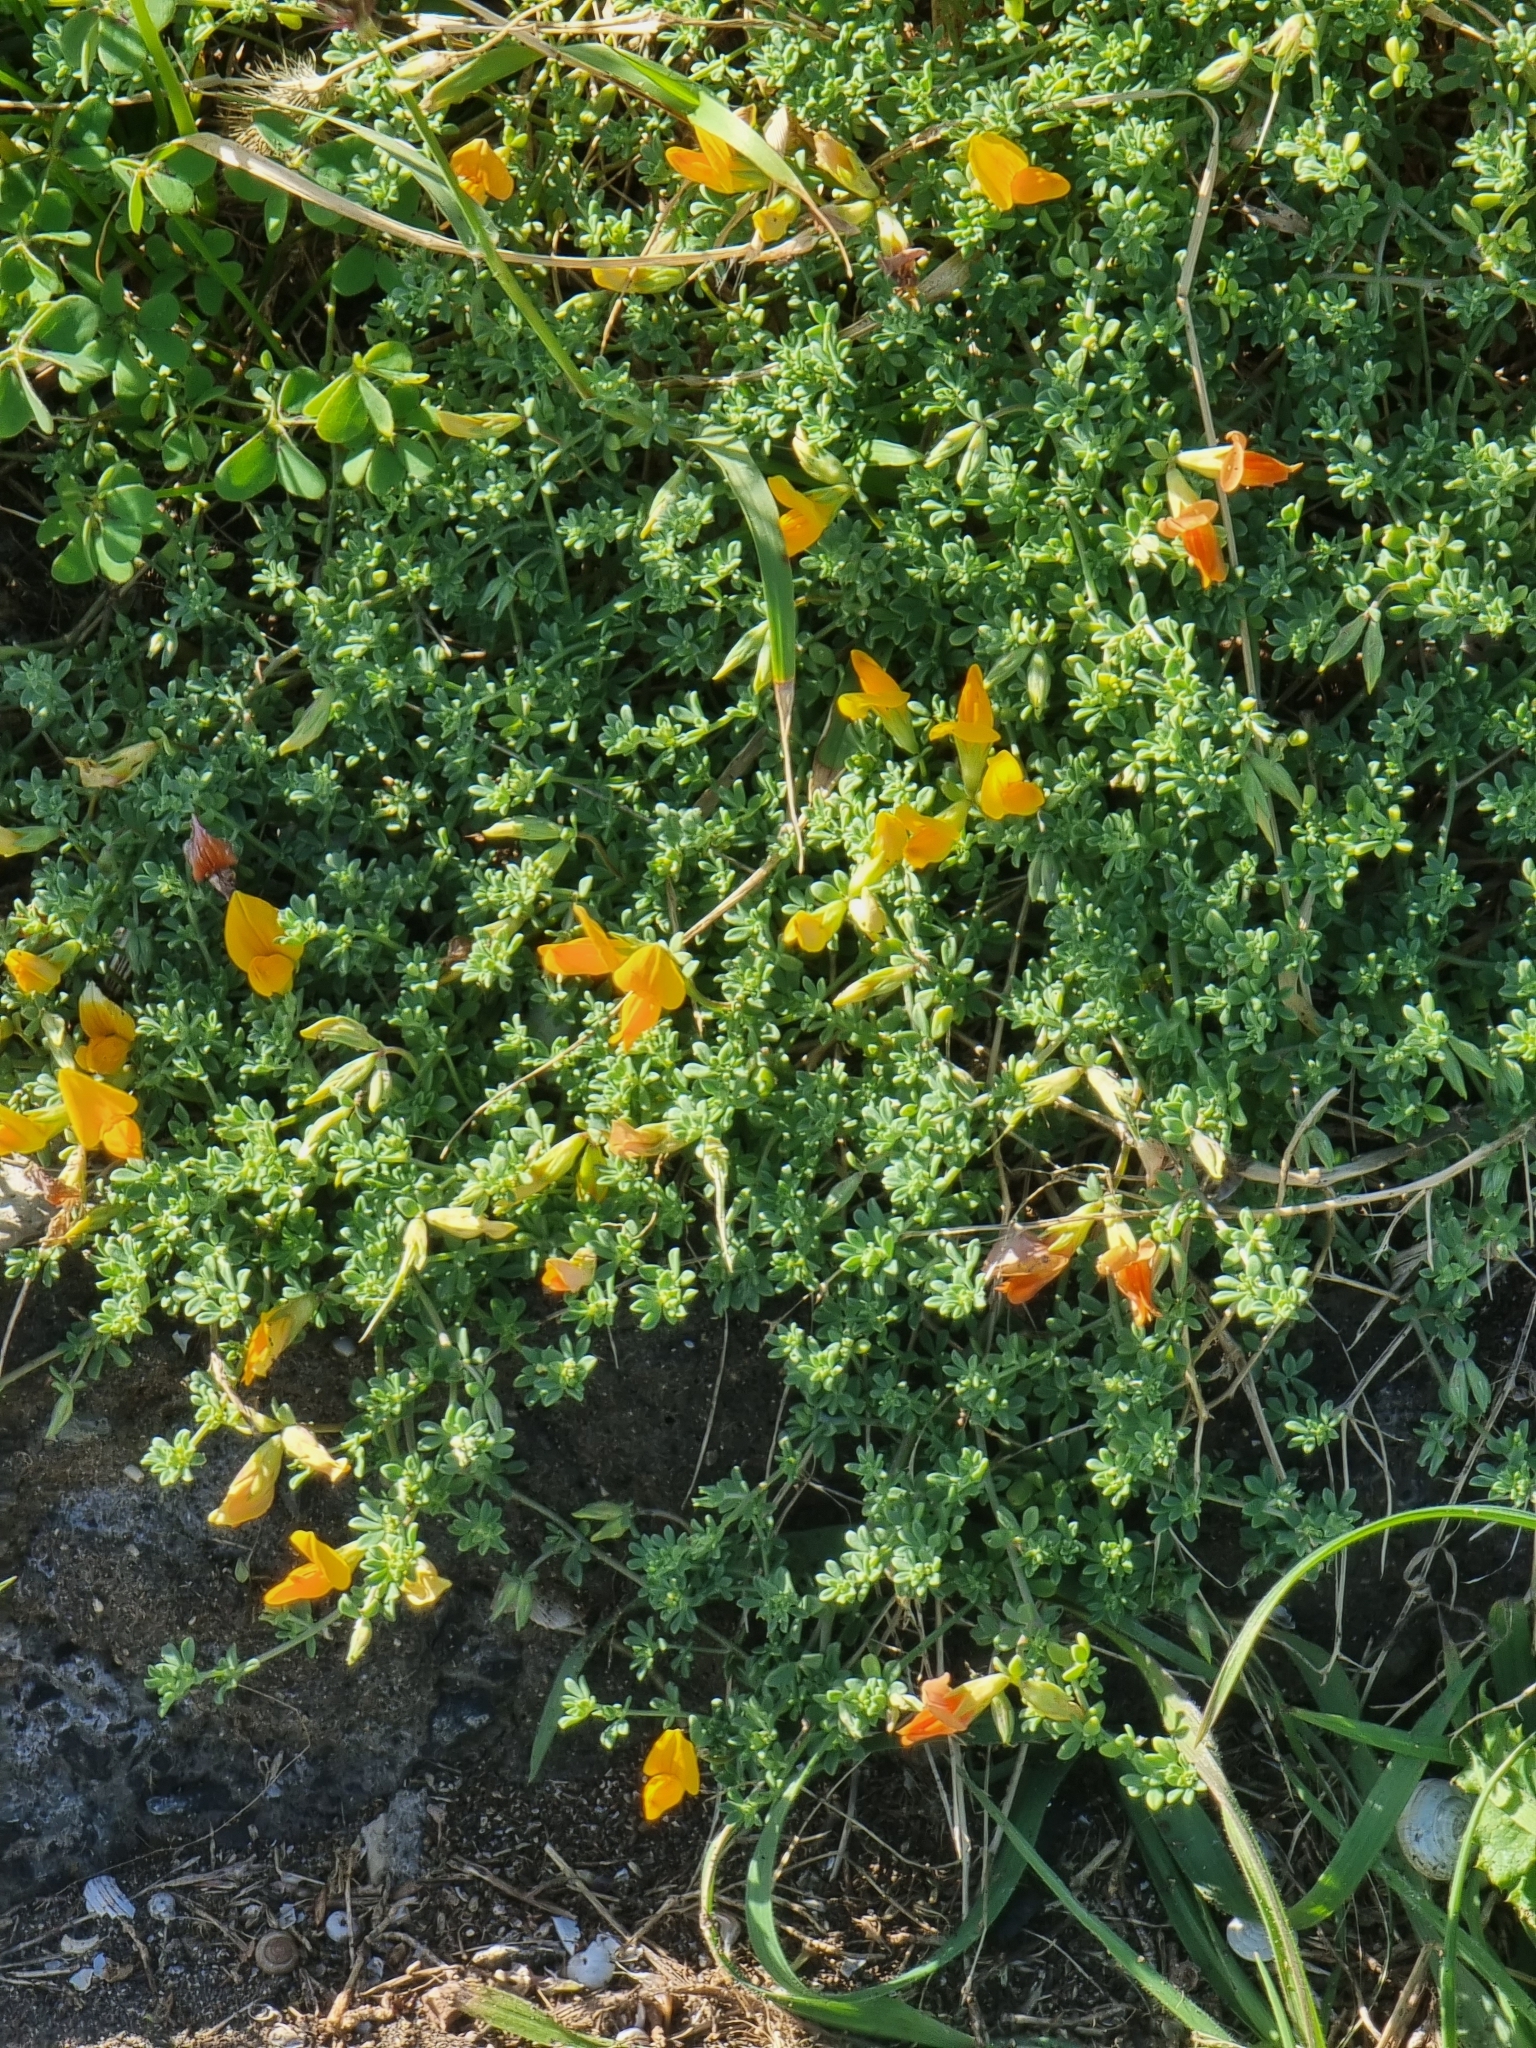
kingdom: Plantae
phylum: Tracheophyta
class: Magnoliopsida
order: Fabales
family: Fabaceae
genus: Lotus
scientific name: Lotus glaucus
